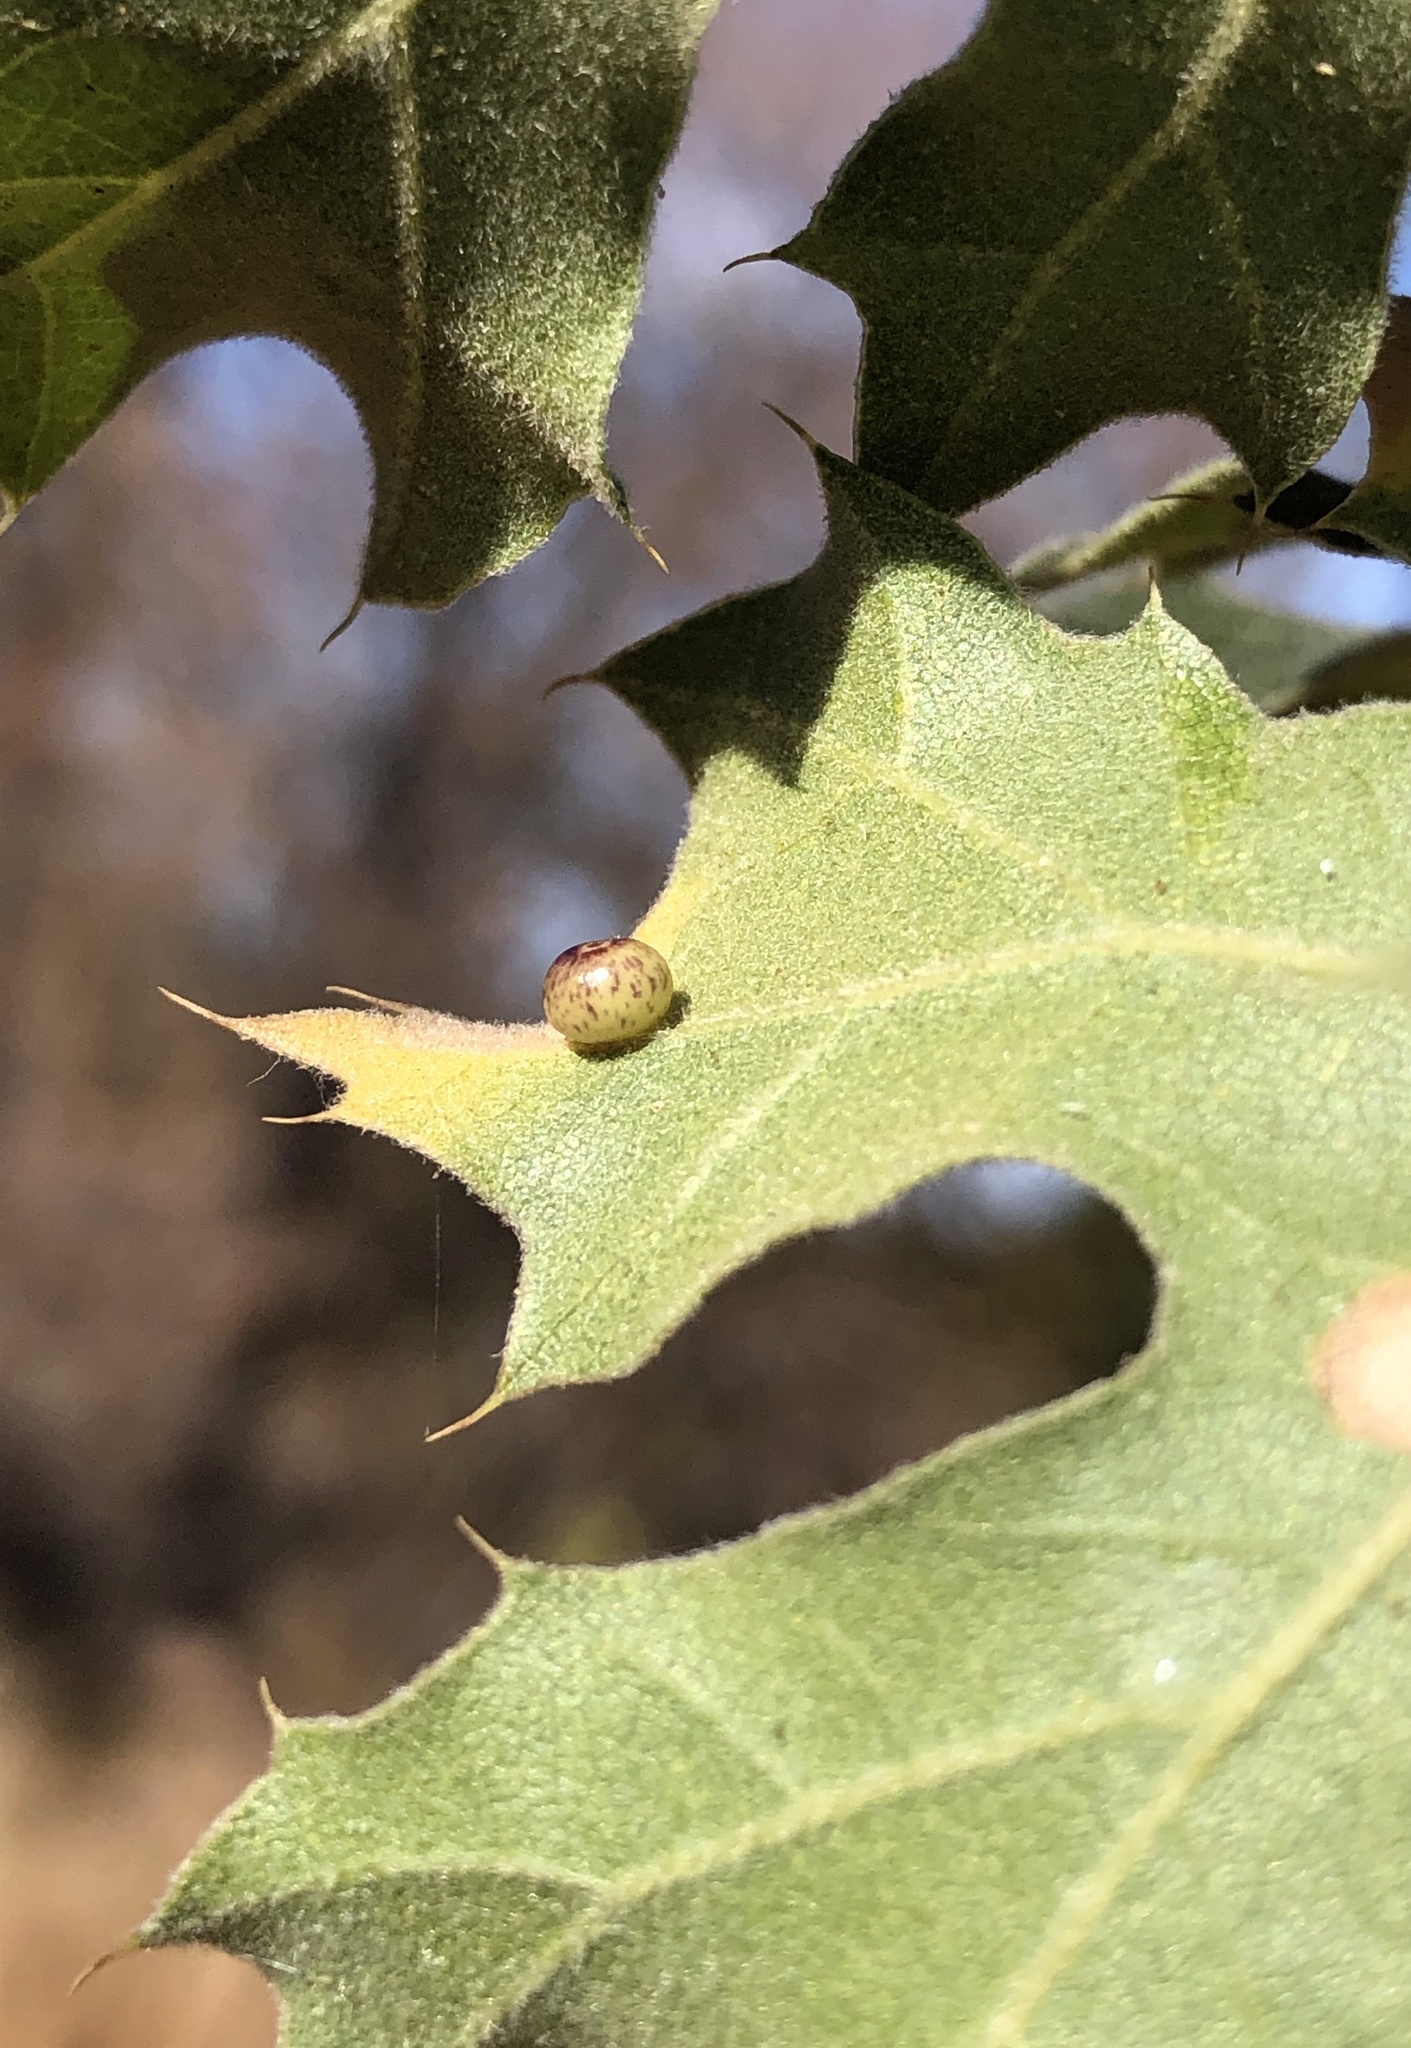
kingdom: Animalia
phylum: Arthropoda
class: Insecta
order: Hymenoptera
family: Cynipidae
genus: Dryocosmus
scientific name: Dryocosmus
